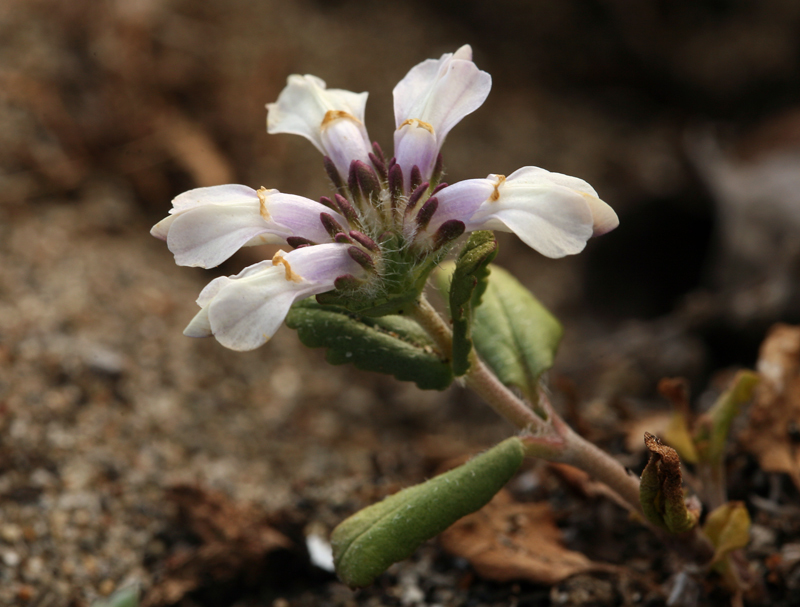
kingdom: Plantae
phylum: Tracheophyta
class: Magnoliopsida
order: Lamiales
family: Plantaginaceae
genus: Collinsia
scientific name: Collinsia corymbosa
